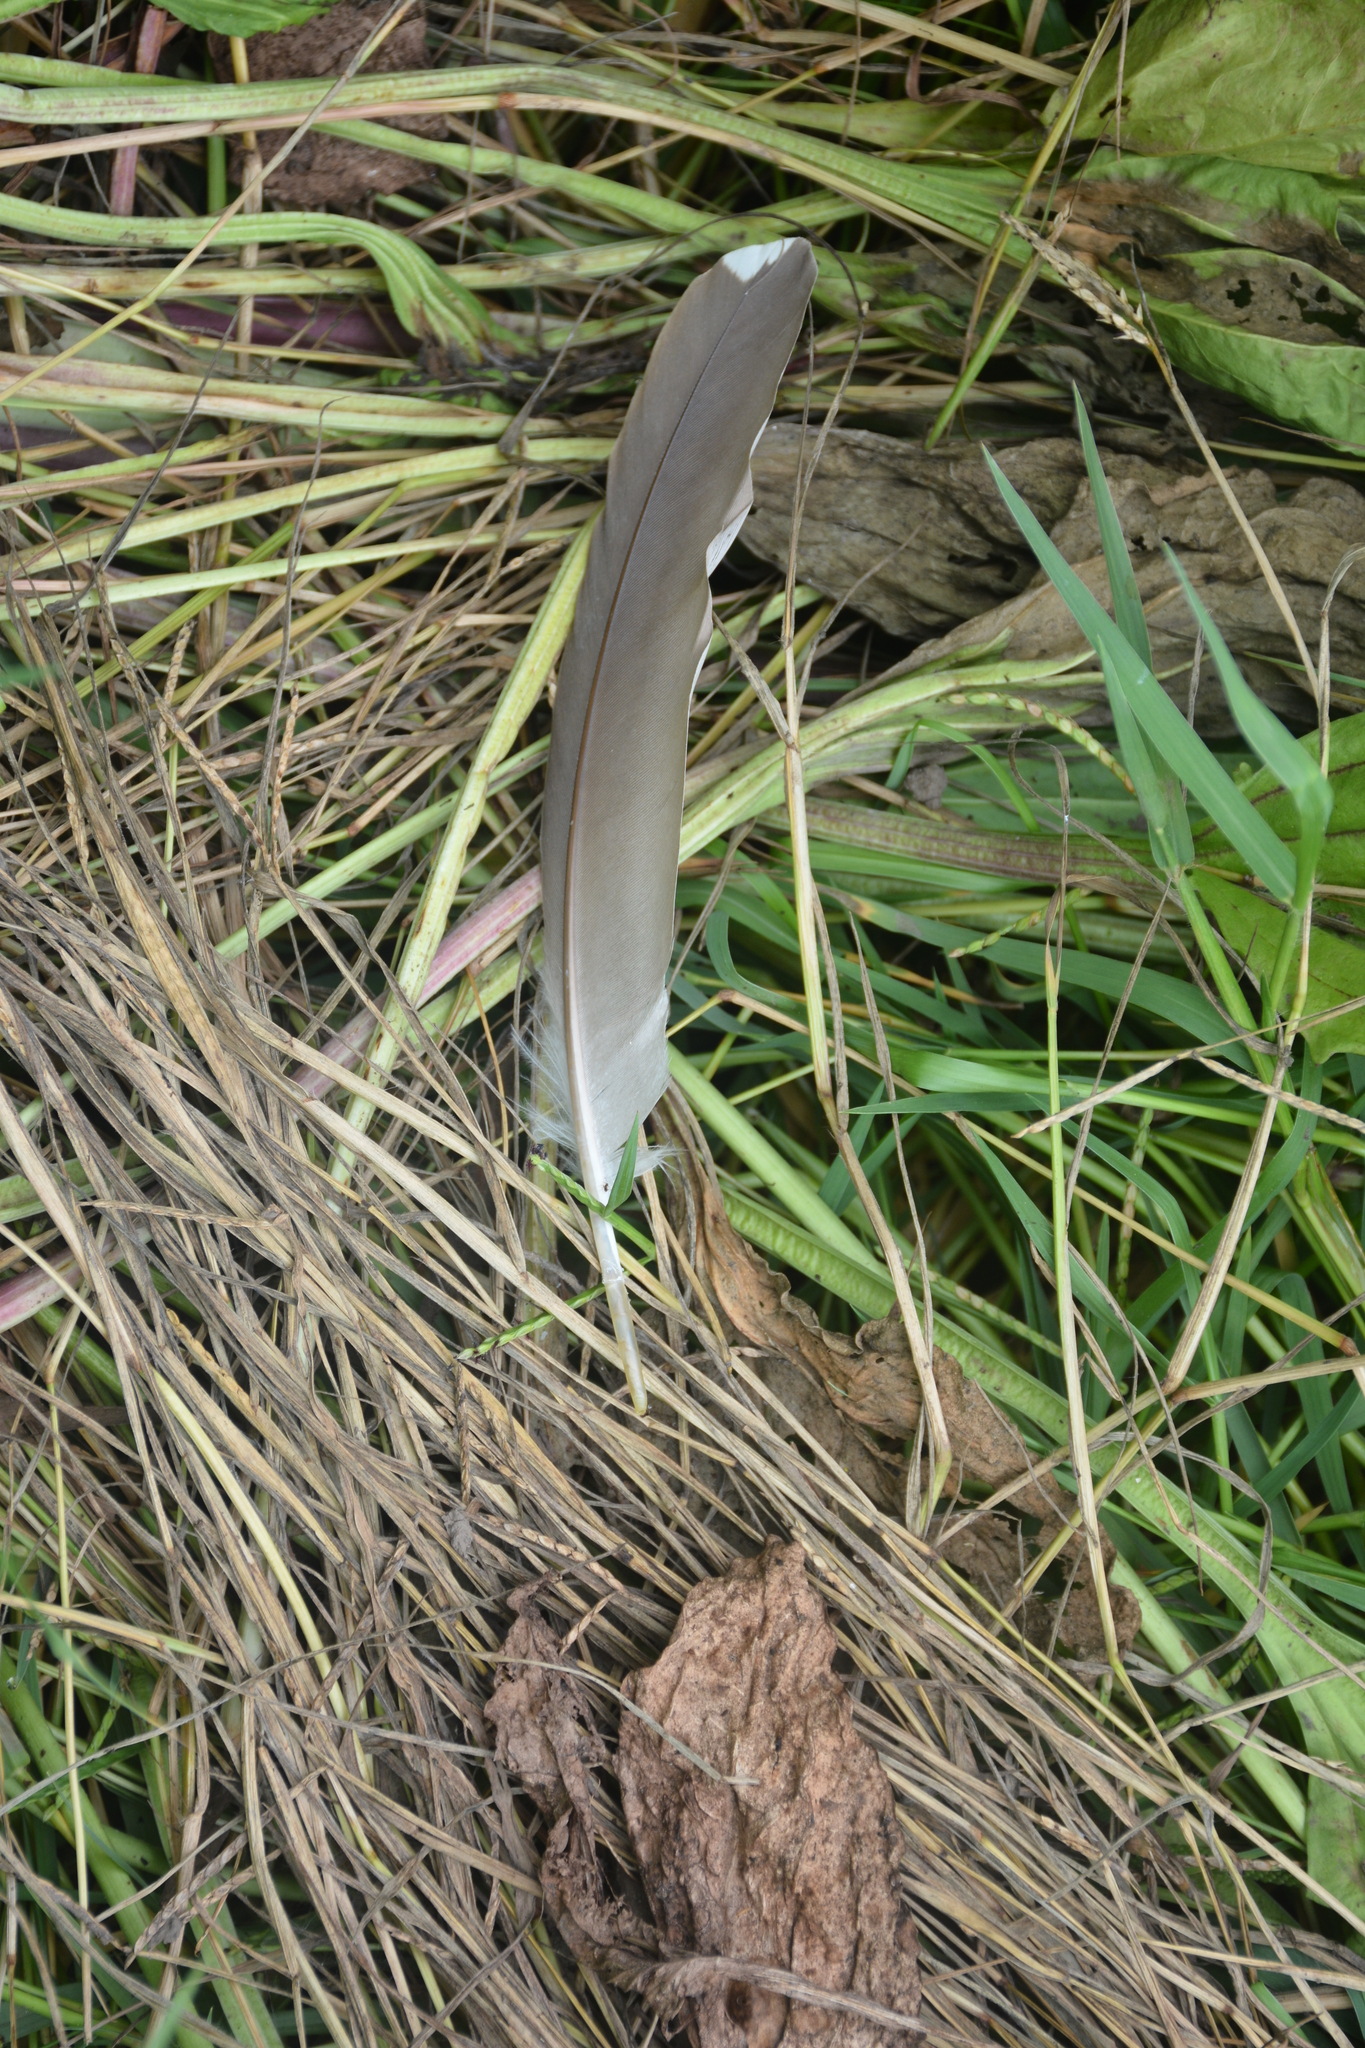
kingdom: Animalia
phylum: Chordata
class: Aves
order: Pelecaniformes
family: Ardeidae
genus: Nycticorax
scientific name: Nycticorax nycticorax
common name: Black-crowned night heron
